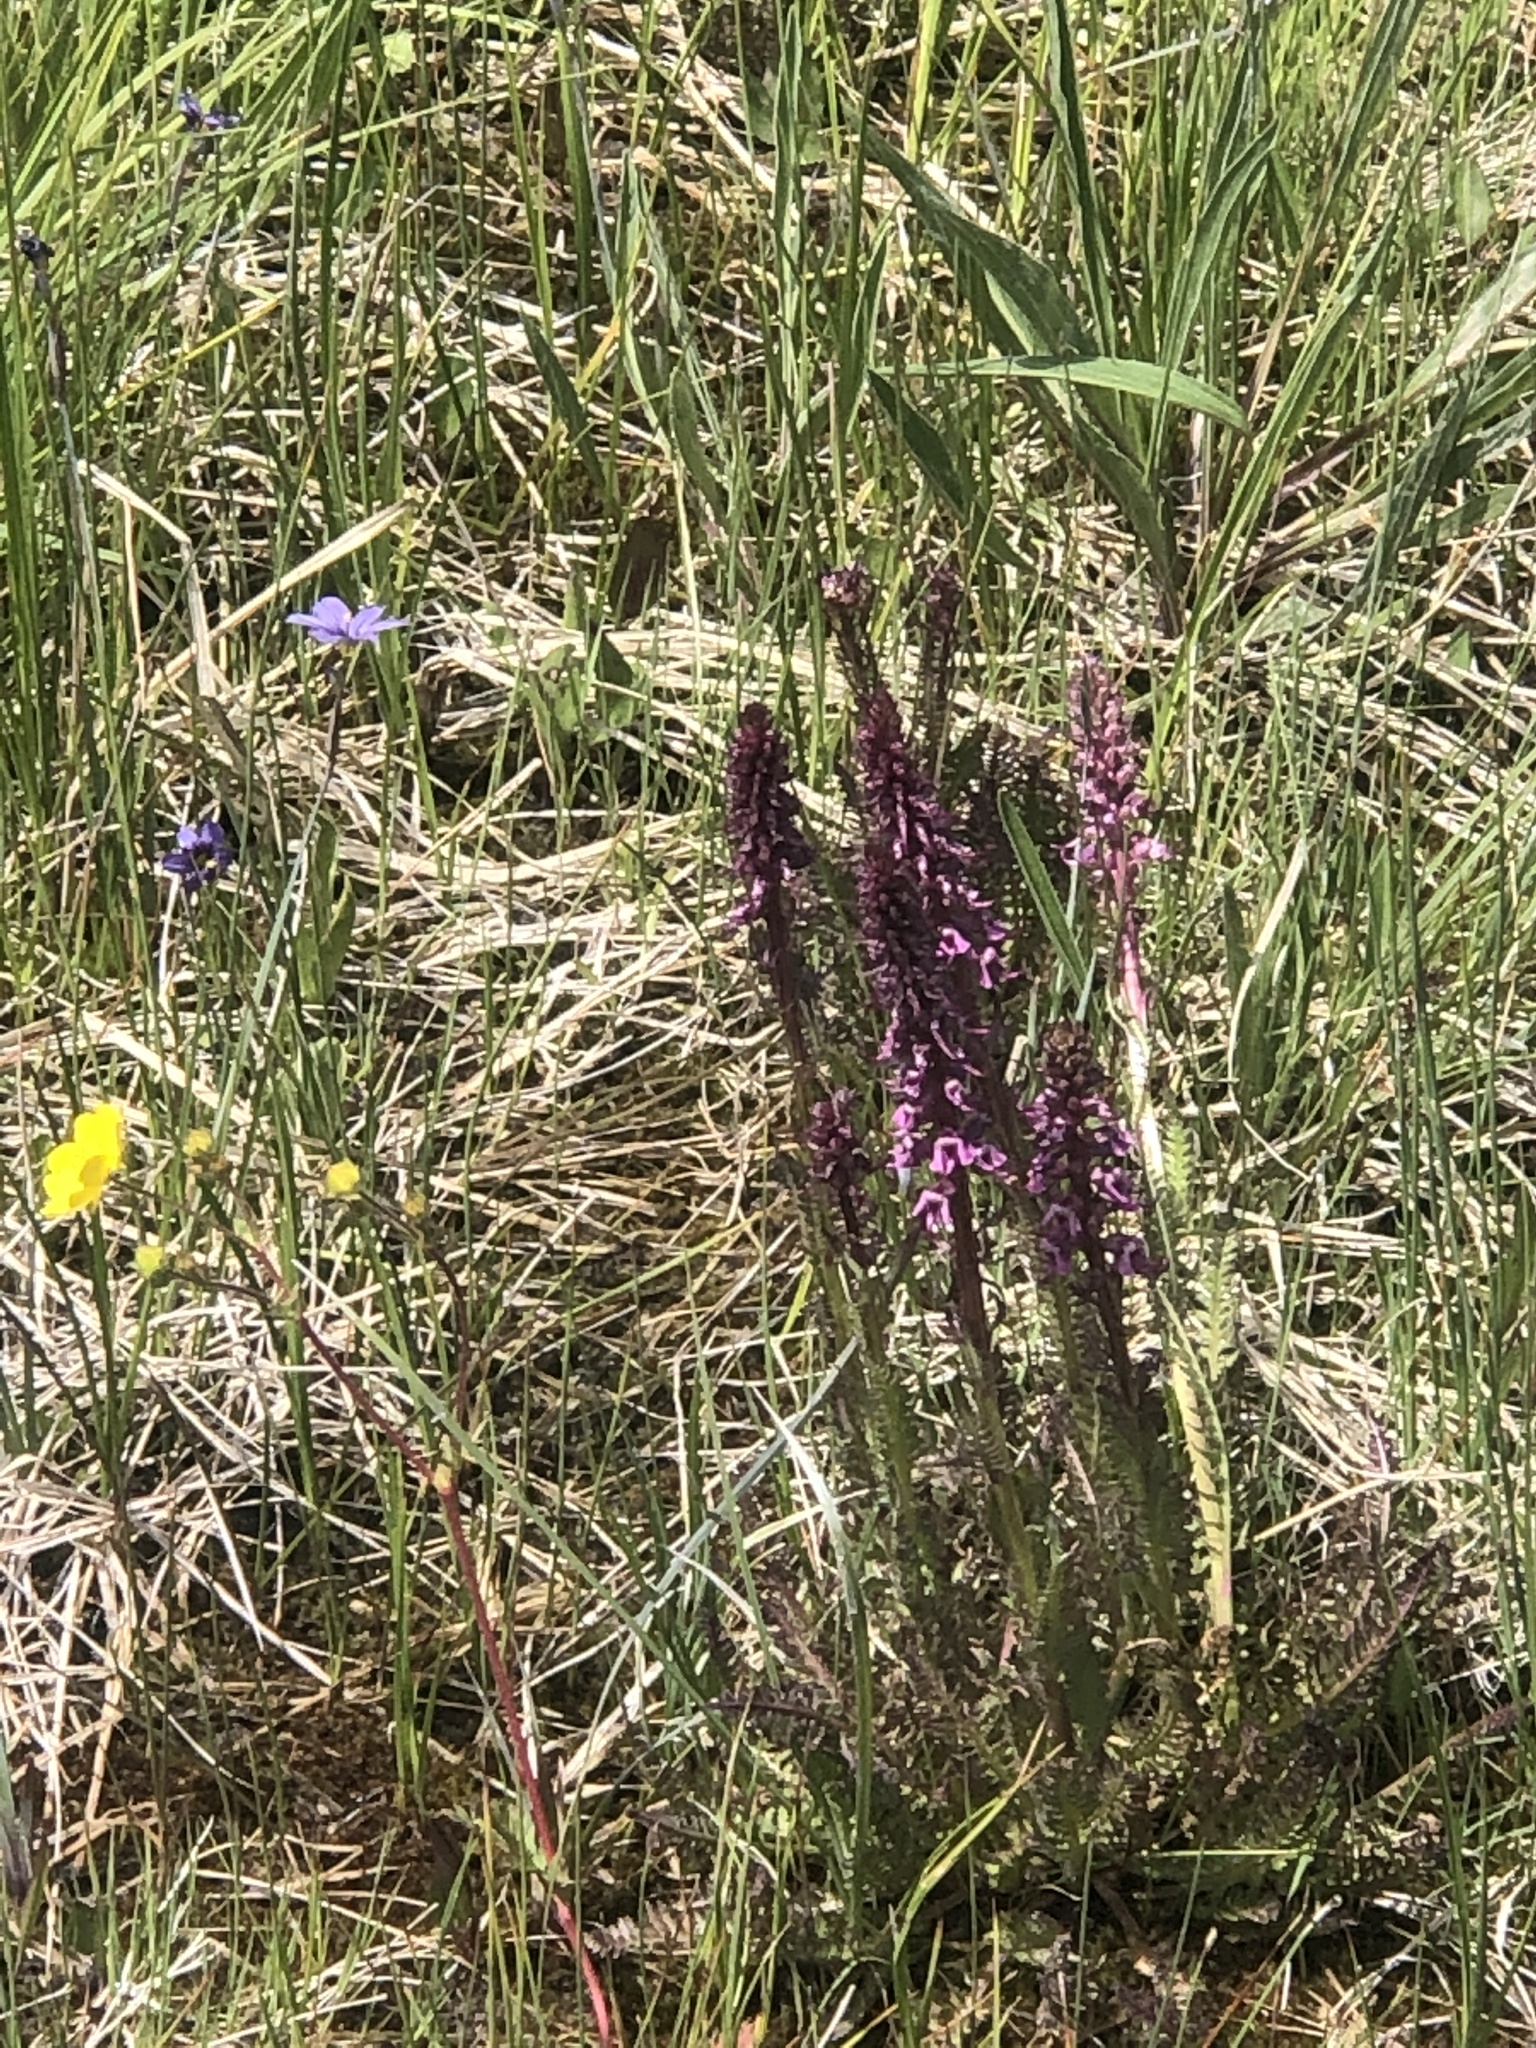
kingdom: Plantae
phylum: Tracheophyta
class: Magnoliopsida
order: Lamiales
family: Orobanchaceae
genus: Pedicularis
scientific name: Pedicularis groenlandica
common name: Elephant's-head
